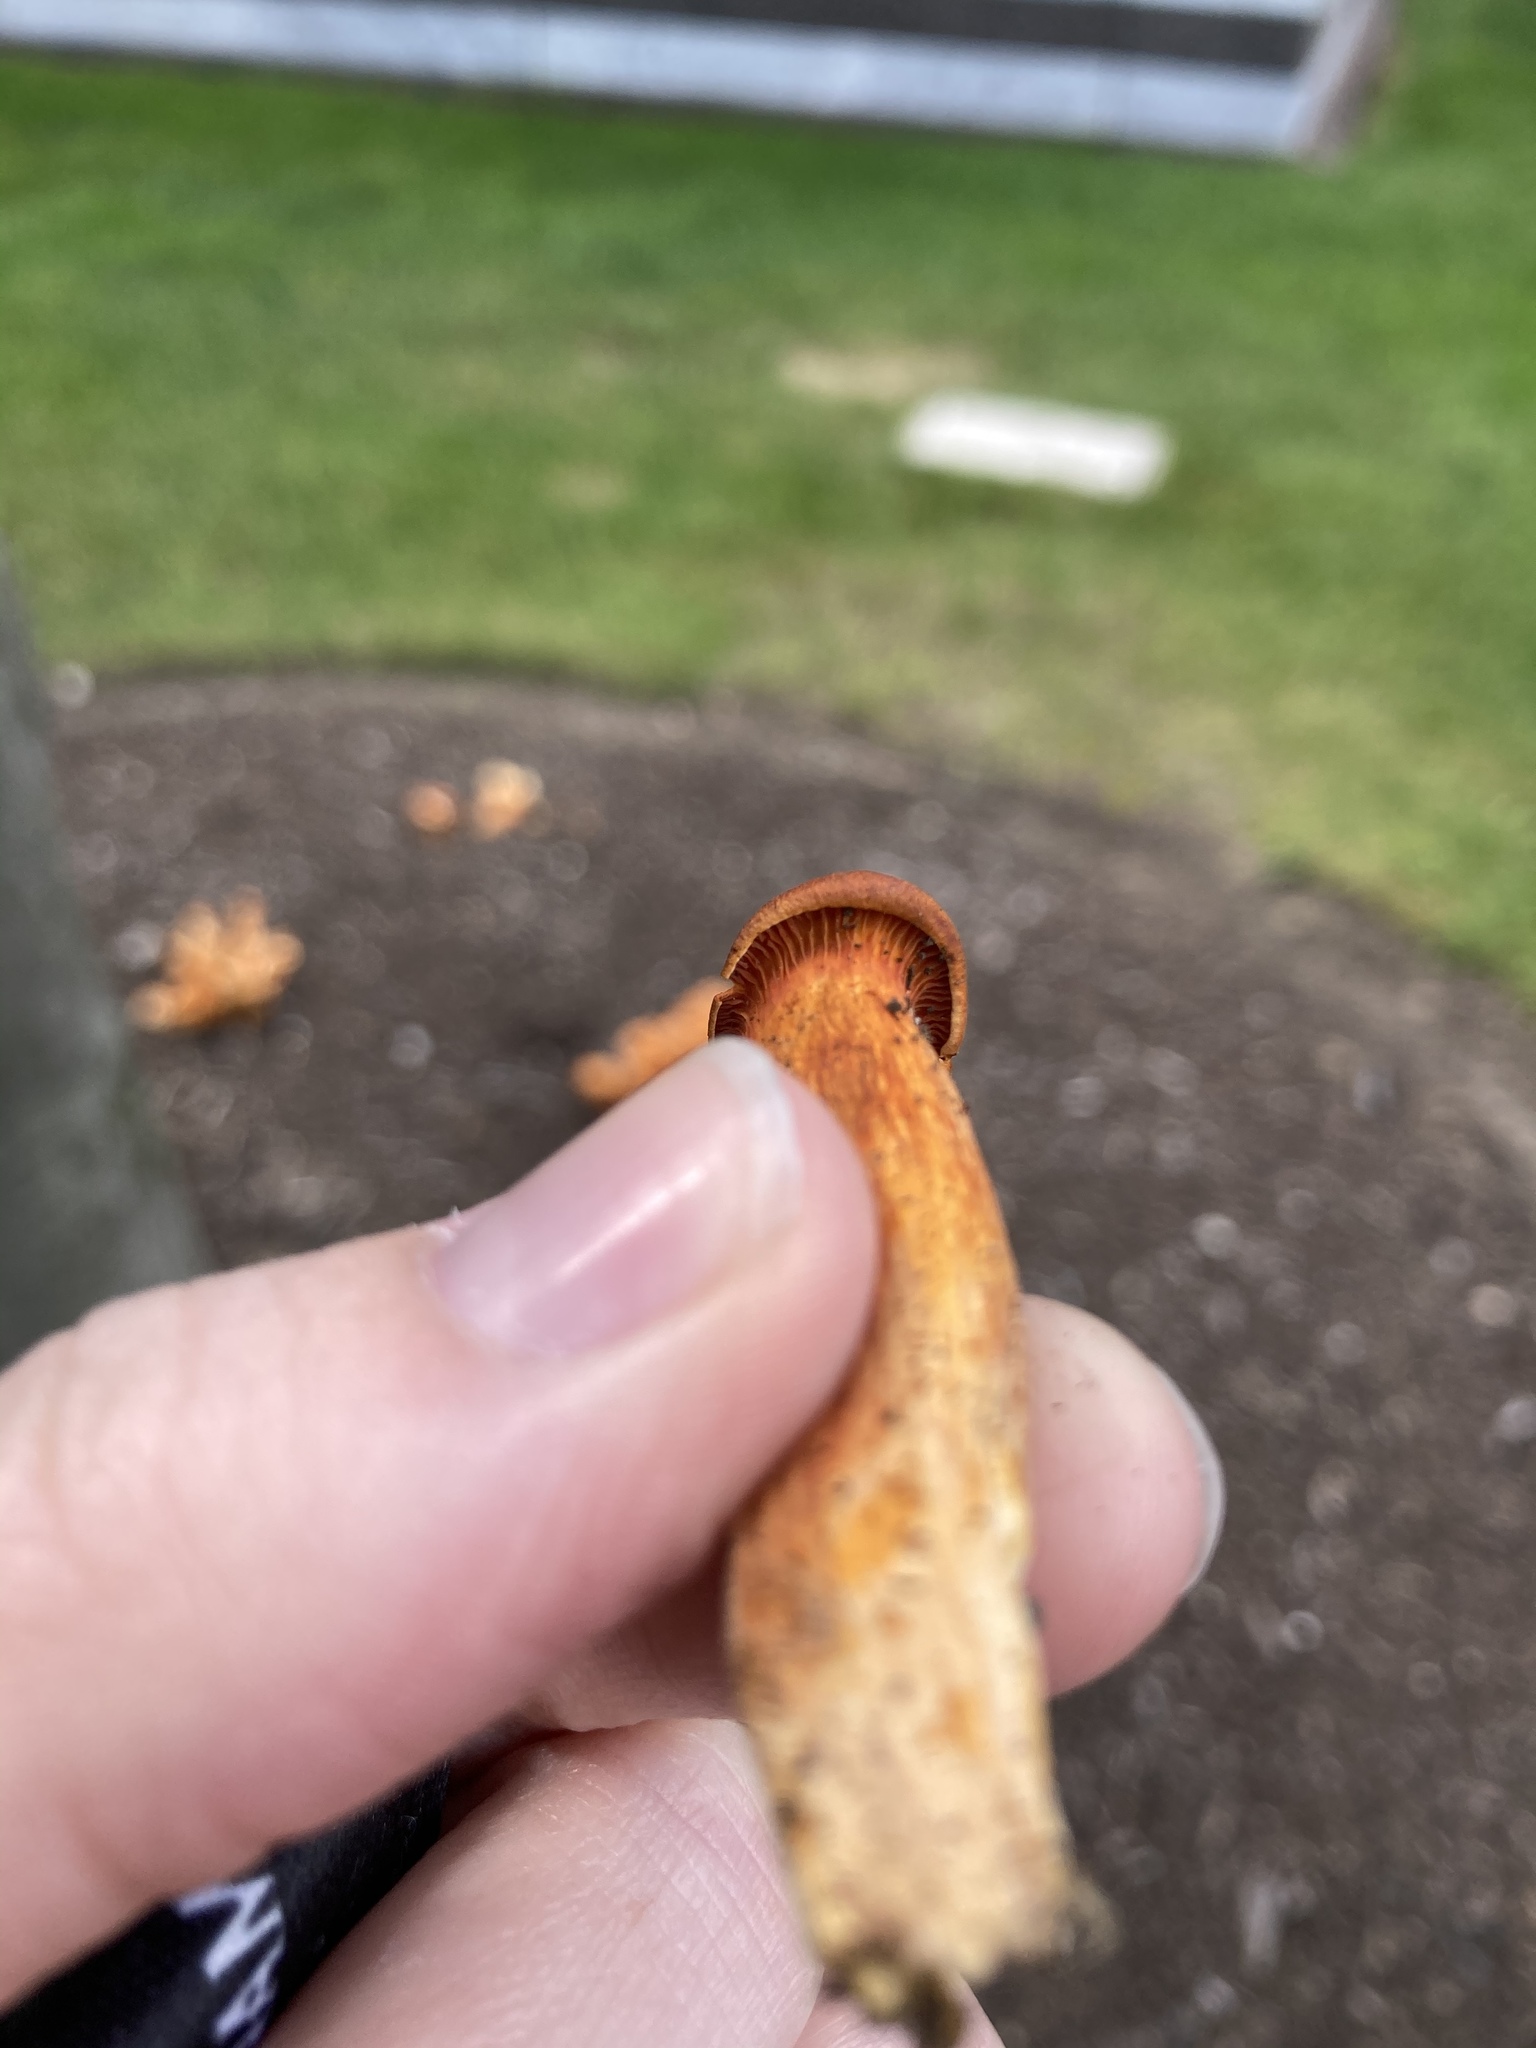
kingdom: Fungi
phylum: Basidiomycota
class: Agaricomycetes
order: Agaricales
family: Omphalotaceae
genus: Omphalotus
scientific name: Omphalotus illudens
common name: Jack o lantern
